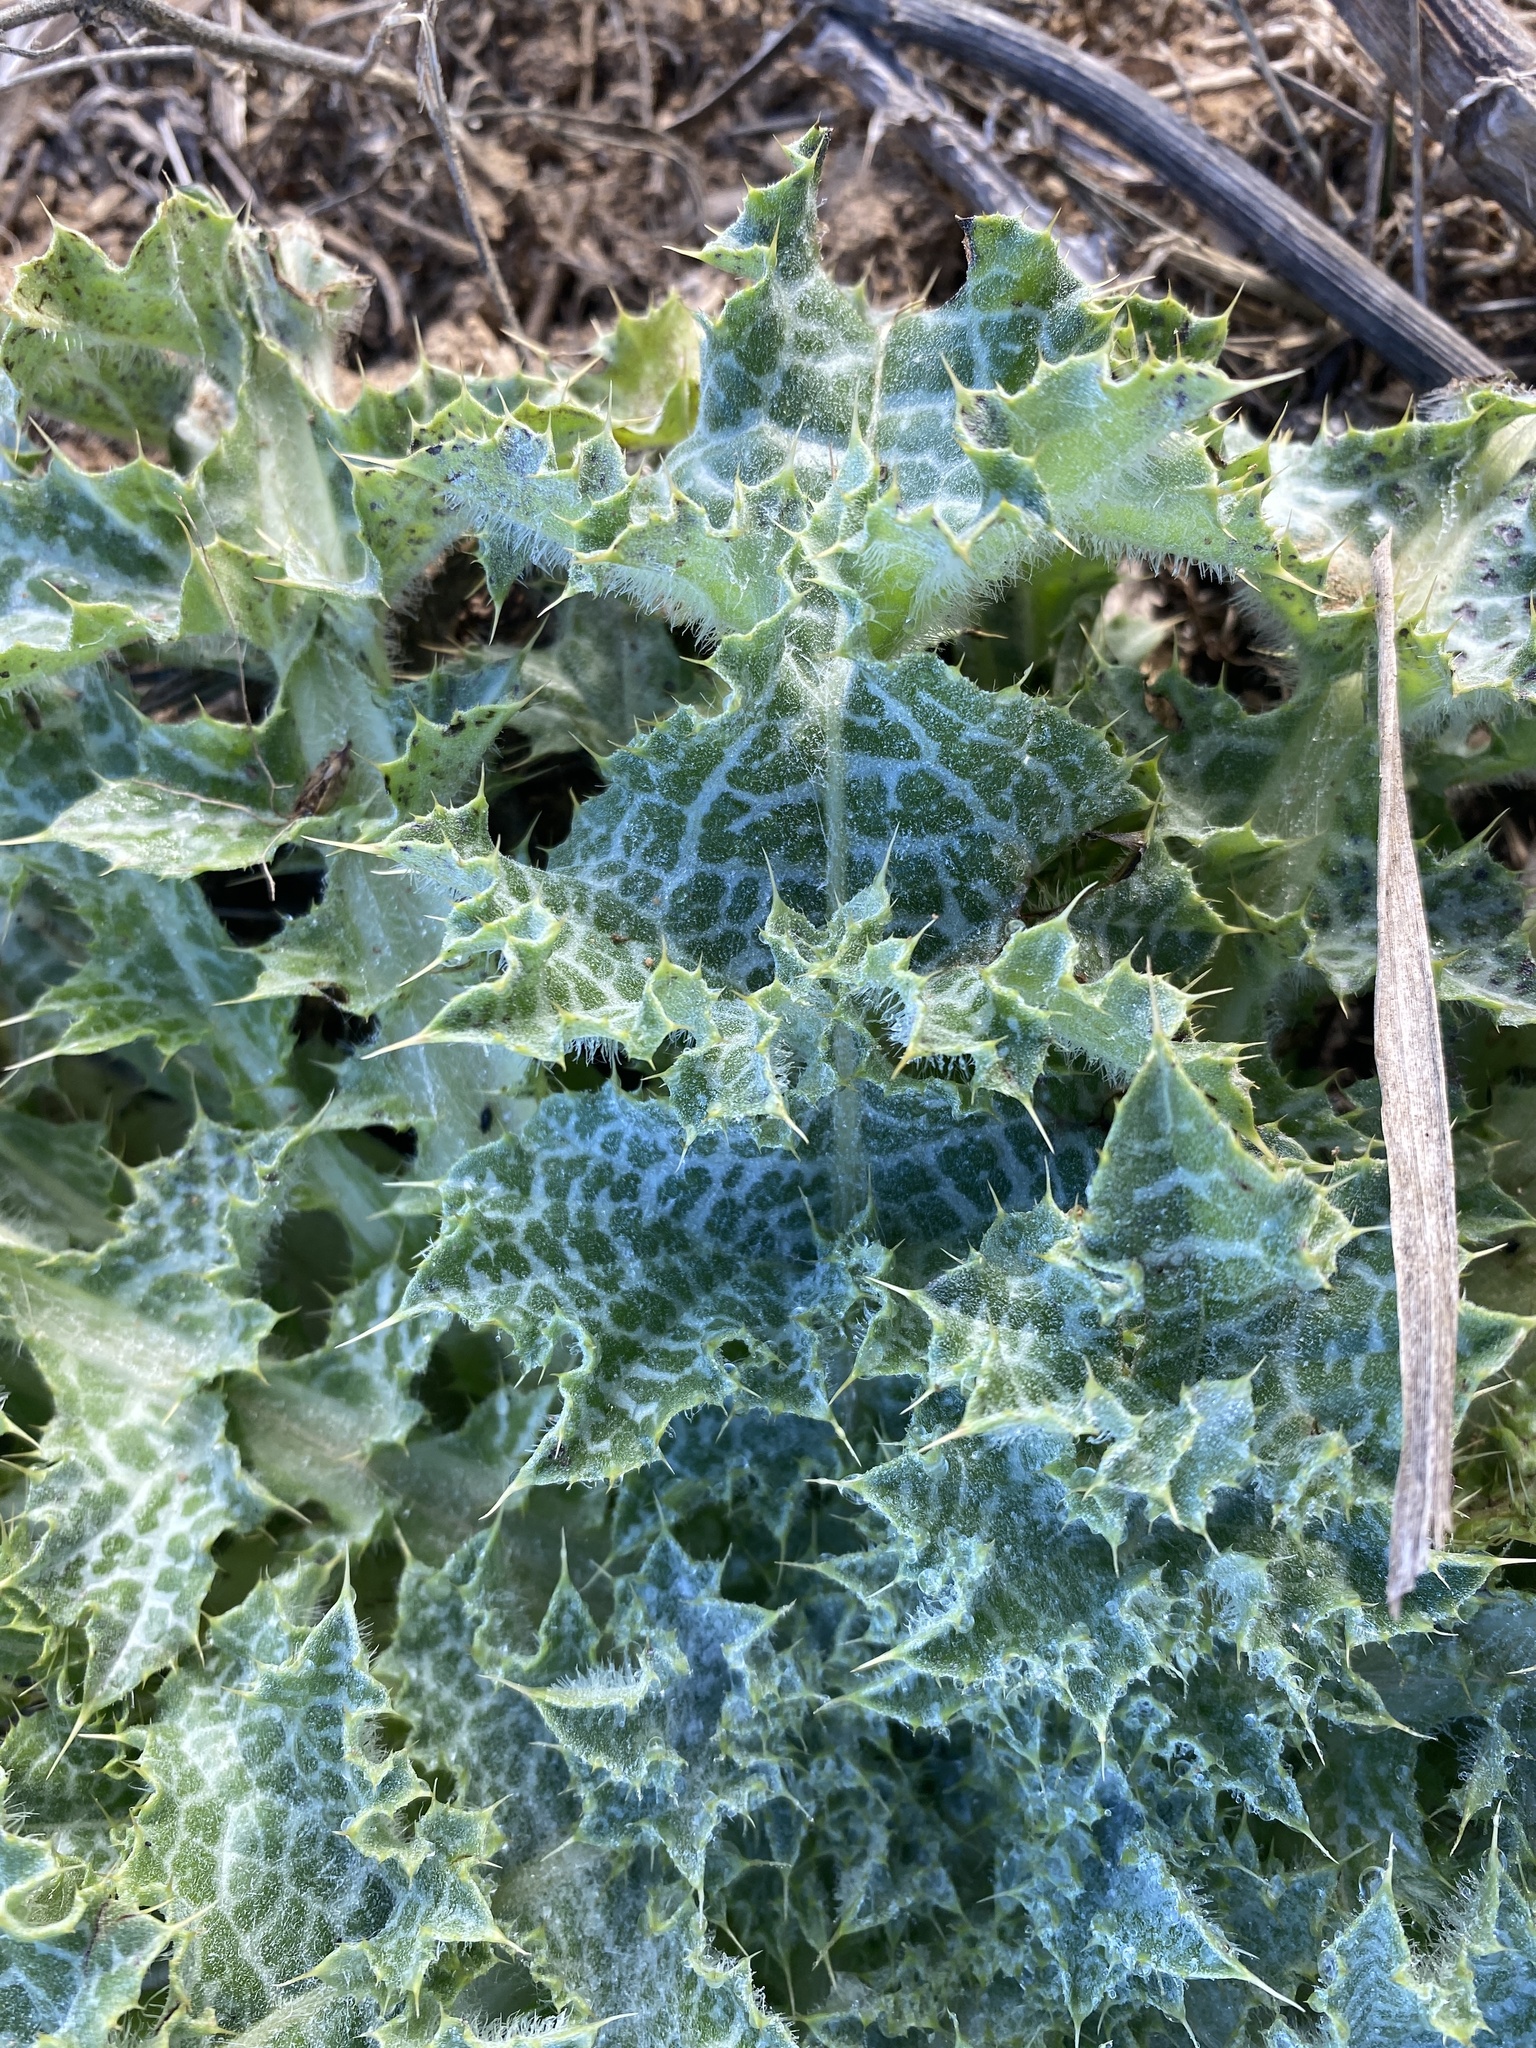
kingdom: Plantae
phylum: Tracheophyta
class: Magnoliopsida
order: Asterales
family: Asteraceae
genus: Silybum
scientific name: Silybum marianum
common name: Milk thistle
